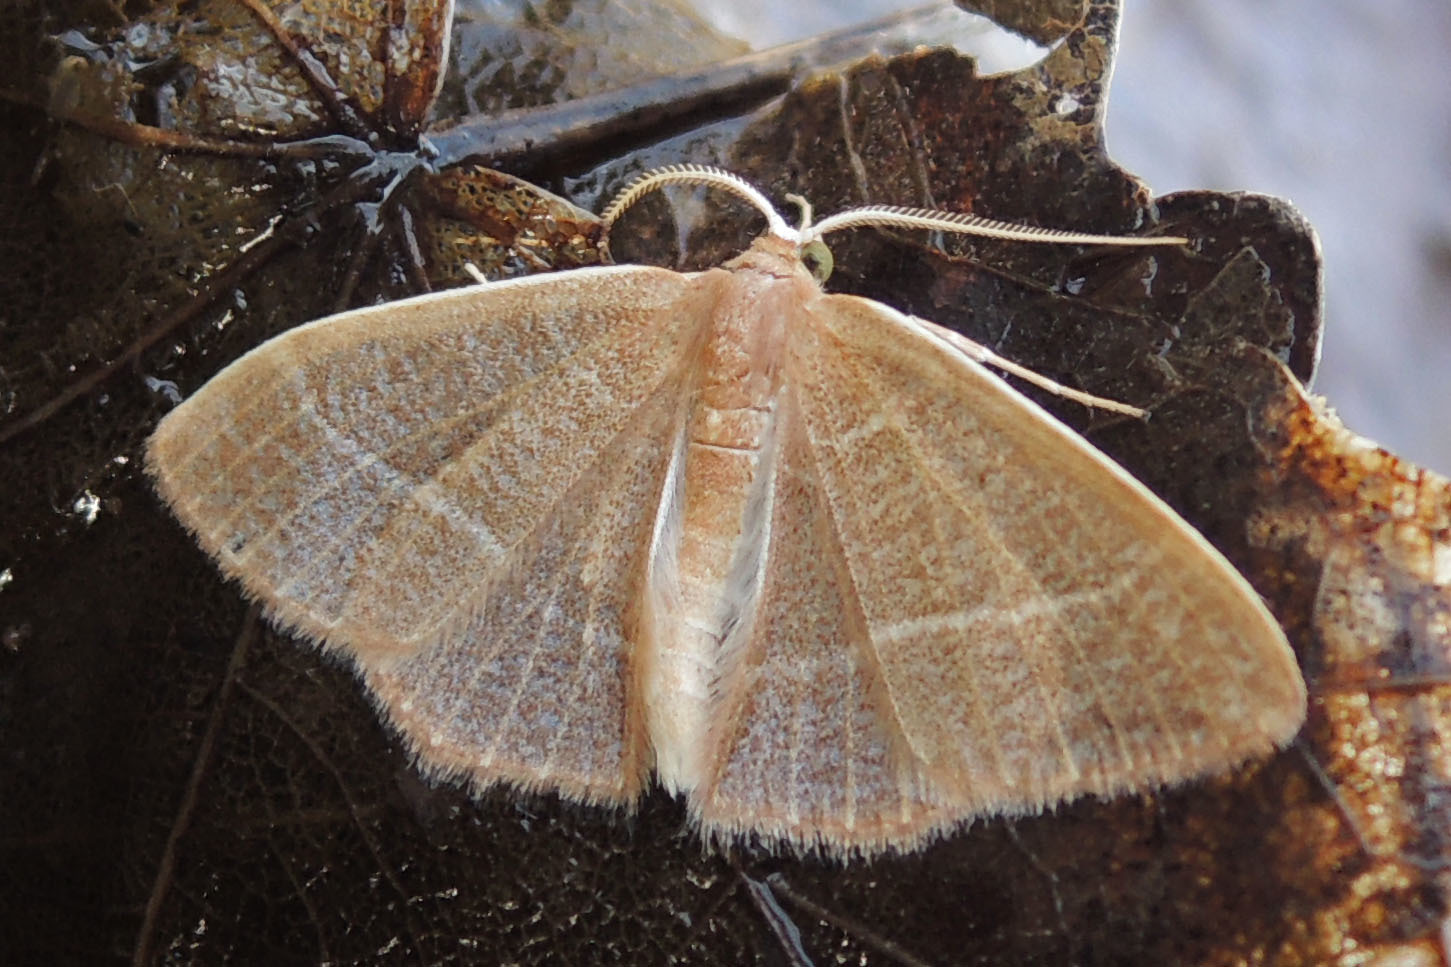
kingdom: Animalia
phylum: Arthropoda
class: Insecta
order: Lepidoptera
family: Geometridae
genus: Nemoria
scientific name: Nemoria bistriaria
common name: Red-fringed emerald
